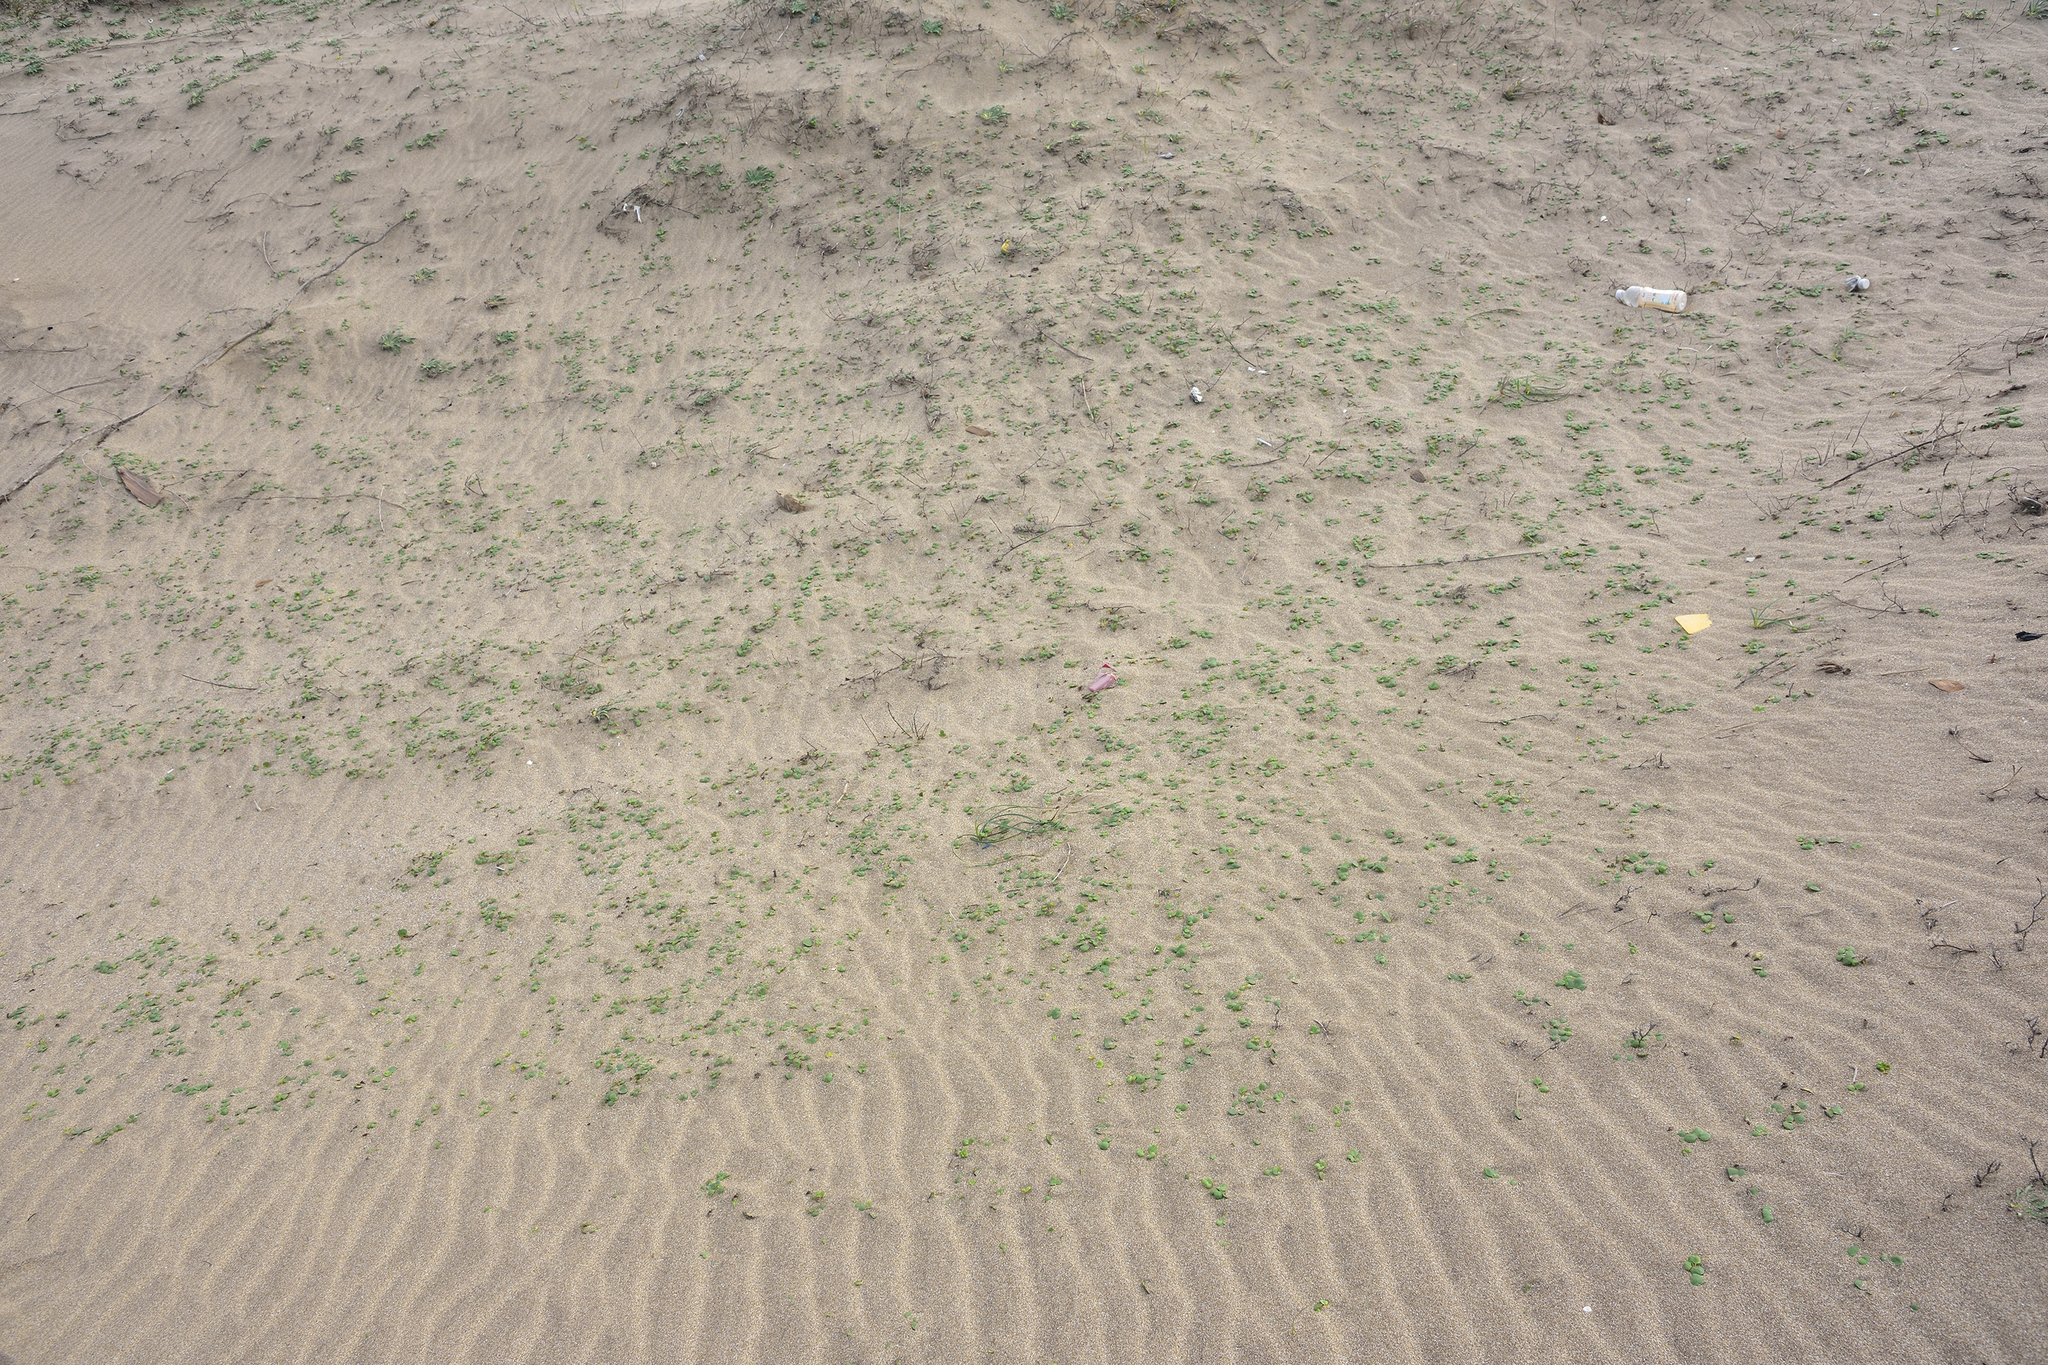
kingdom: Plantae
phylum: Tracheophyta
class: Magnoliopsida
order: Asterales
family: Asteraceae
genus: Ixeris
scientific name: Ixeris repens
